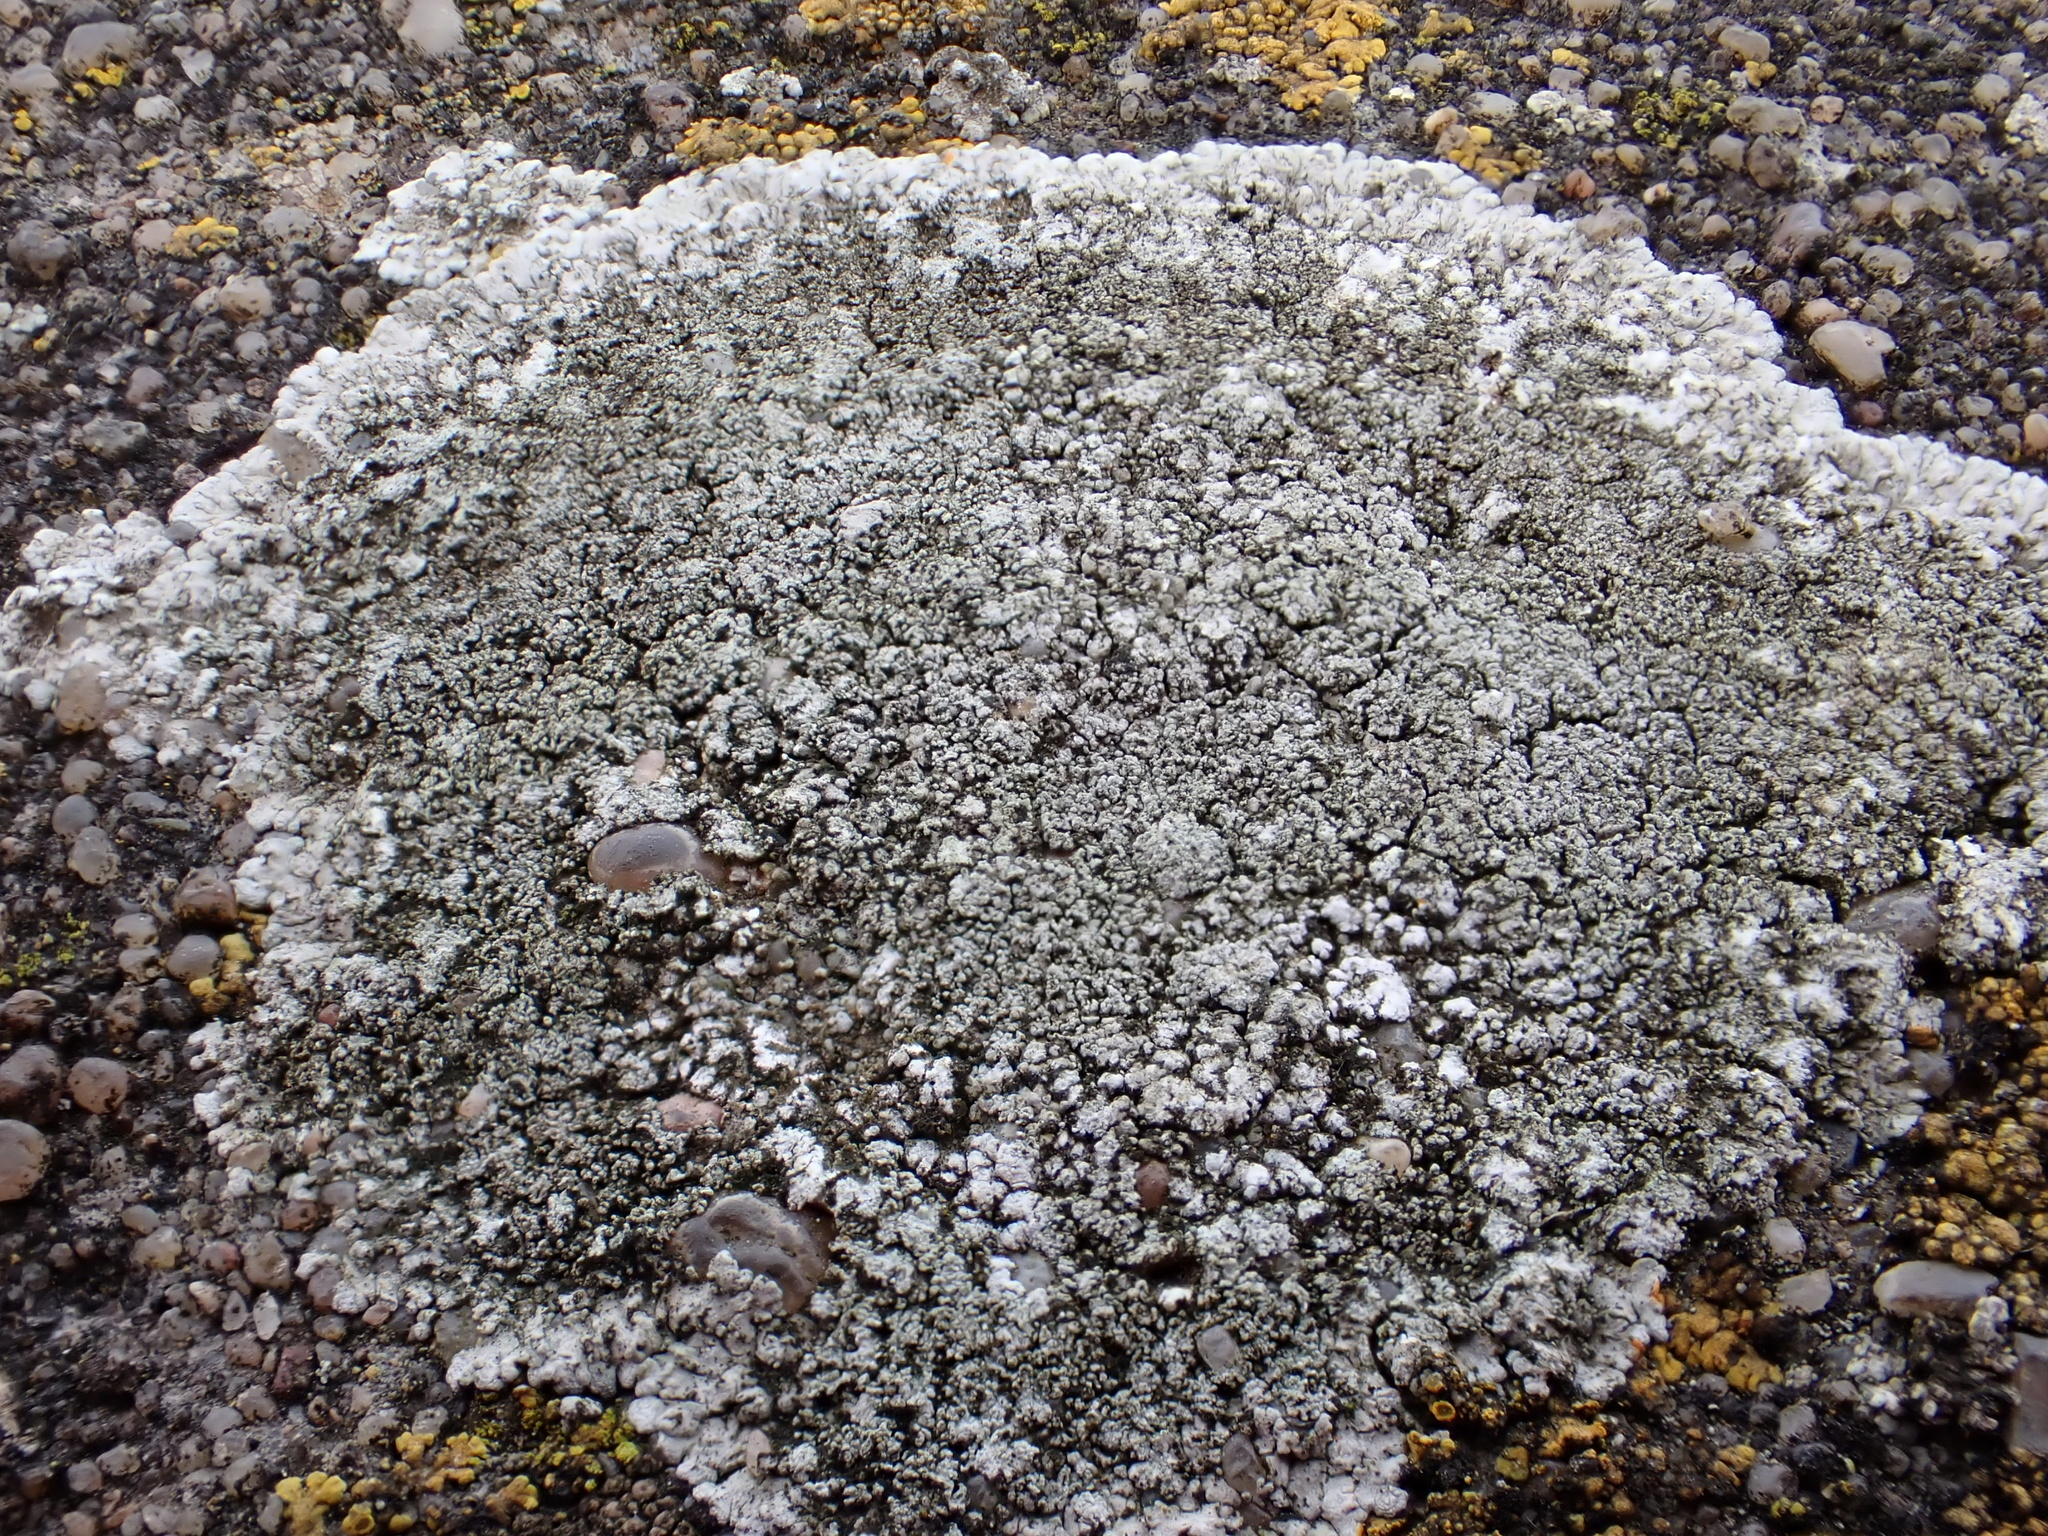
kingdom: Fungi
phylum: Ascomycota
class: Lecanoromycetes
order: Teloschistales
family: Teloschistaceae
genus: Kuettlingeria
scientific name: Kuettlingeria teicholyta
